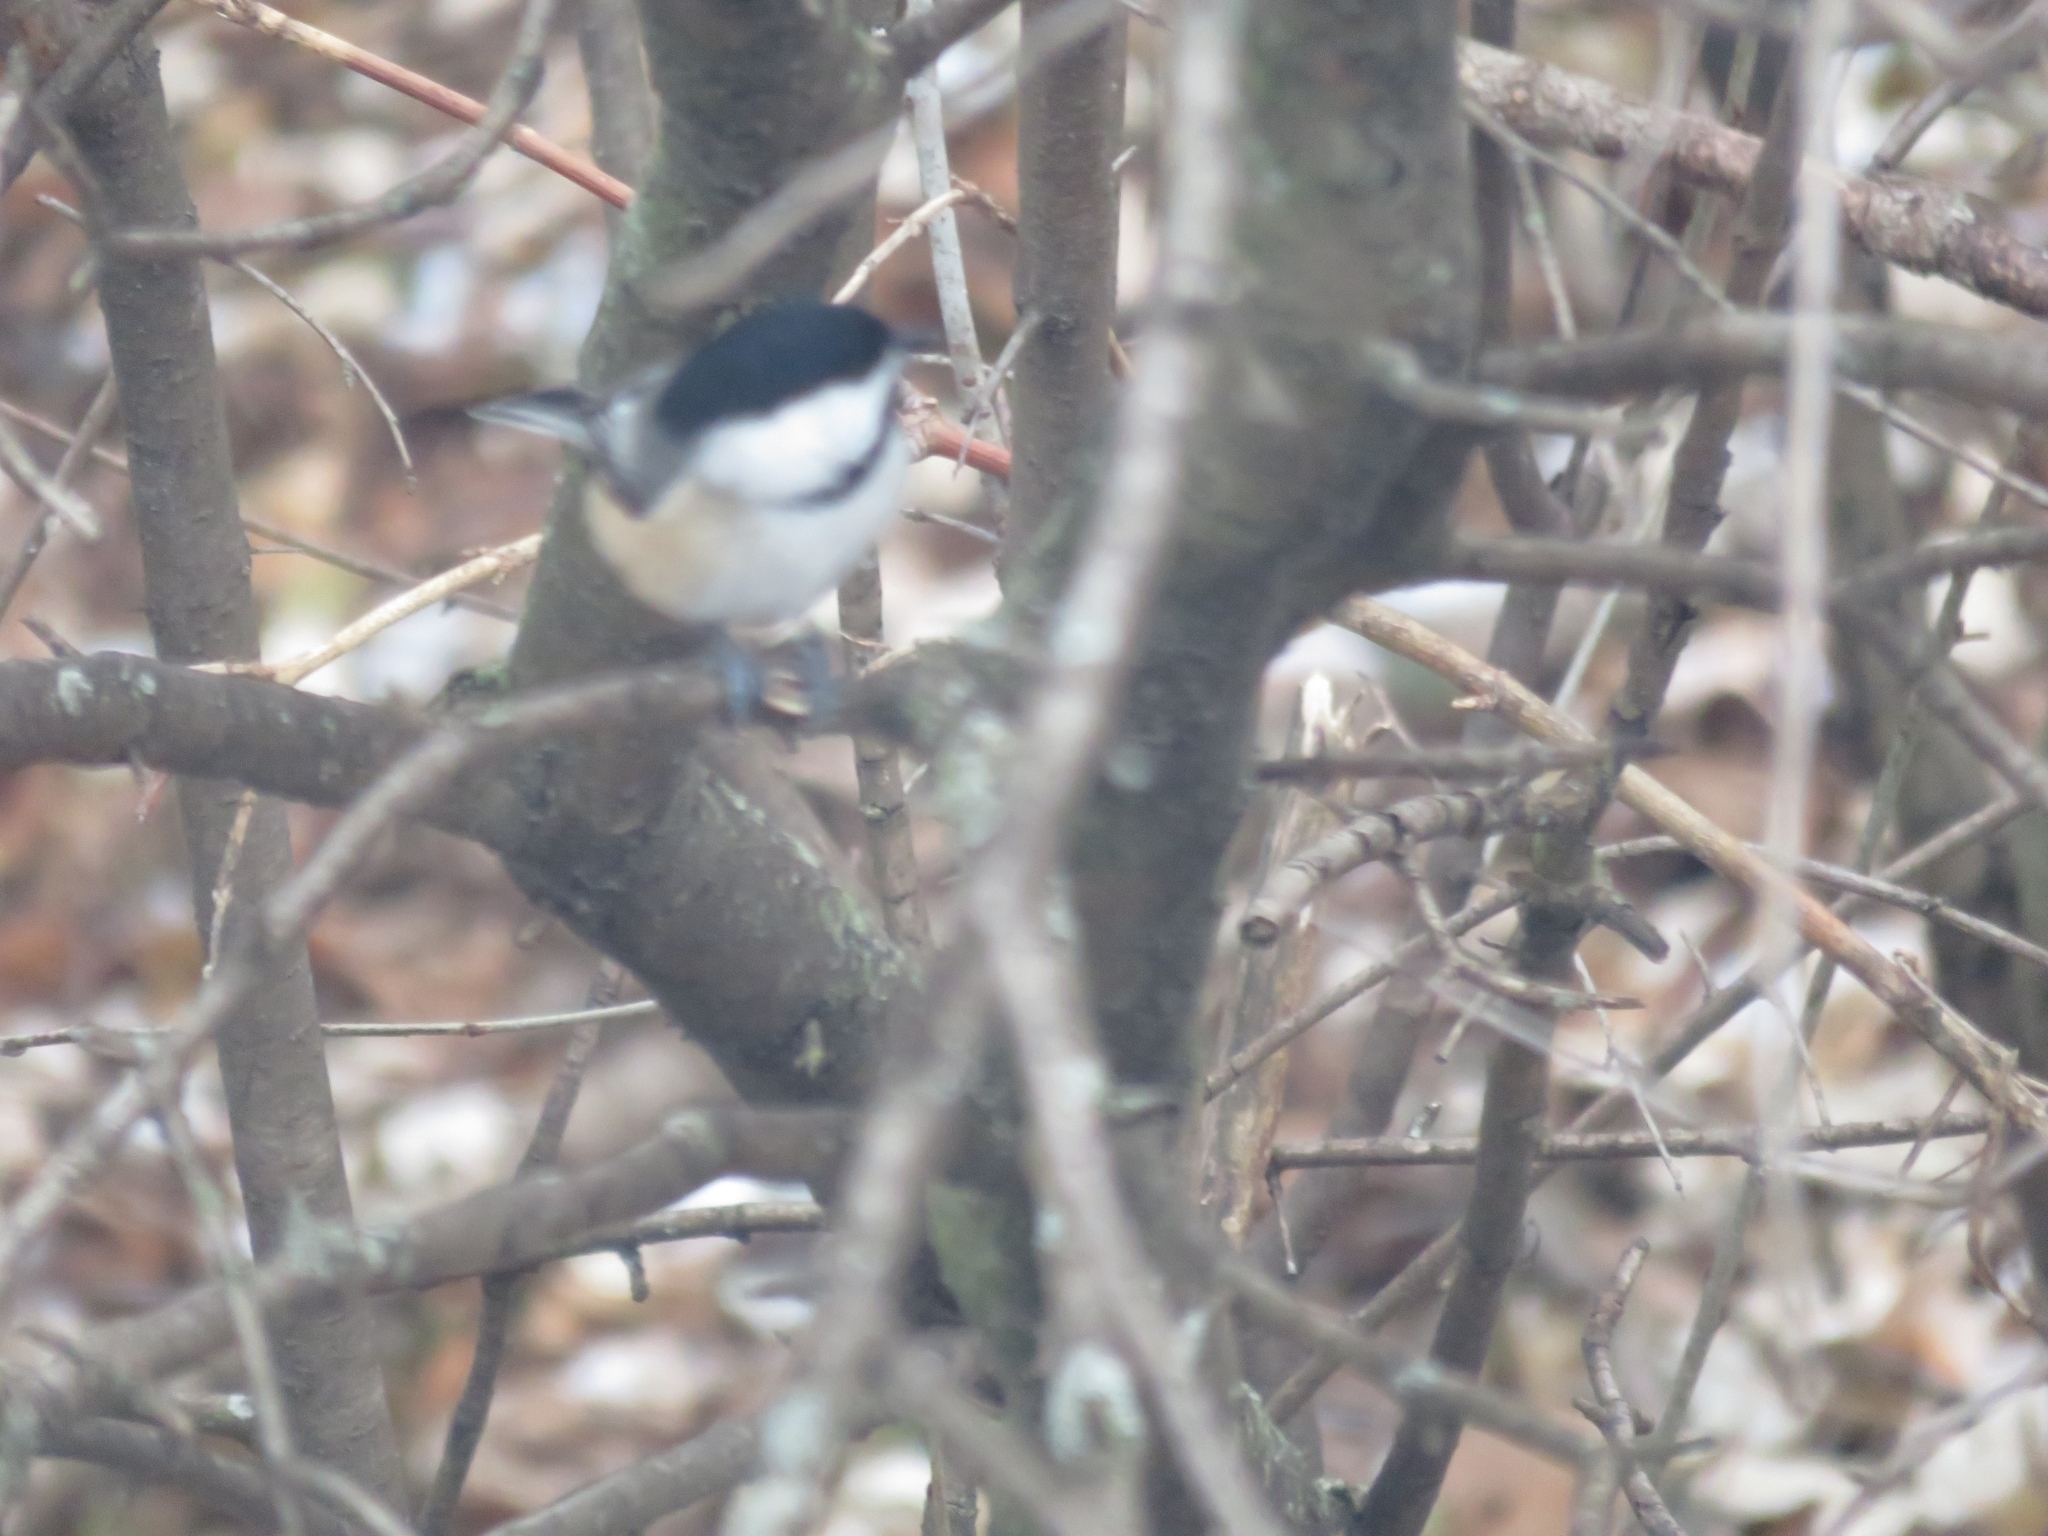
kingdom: Animalia
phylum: Chordata
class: Aves
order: Passeriformes
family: Paridae
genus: Poecile
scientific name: Poecile atricapillus
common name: Black-capped chickadee
